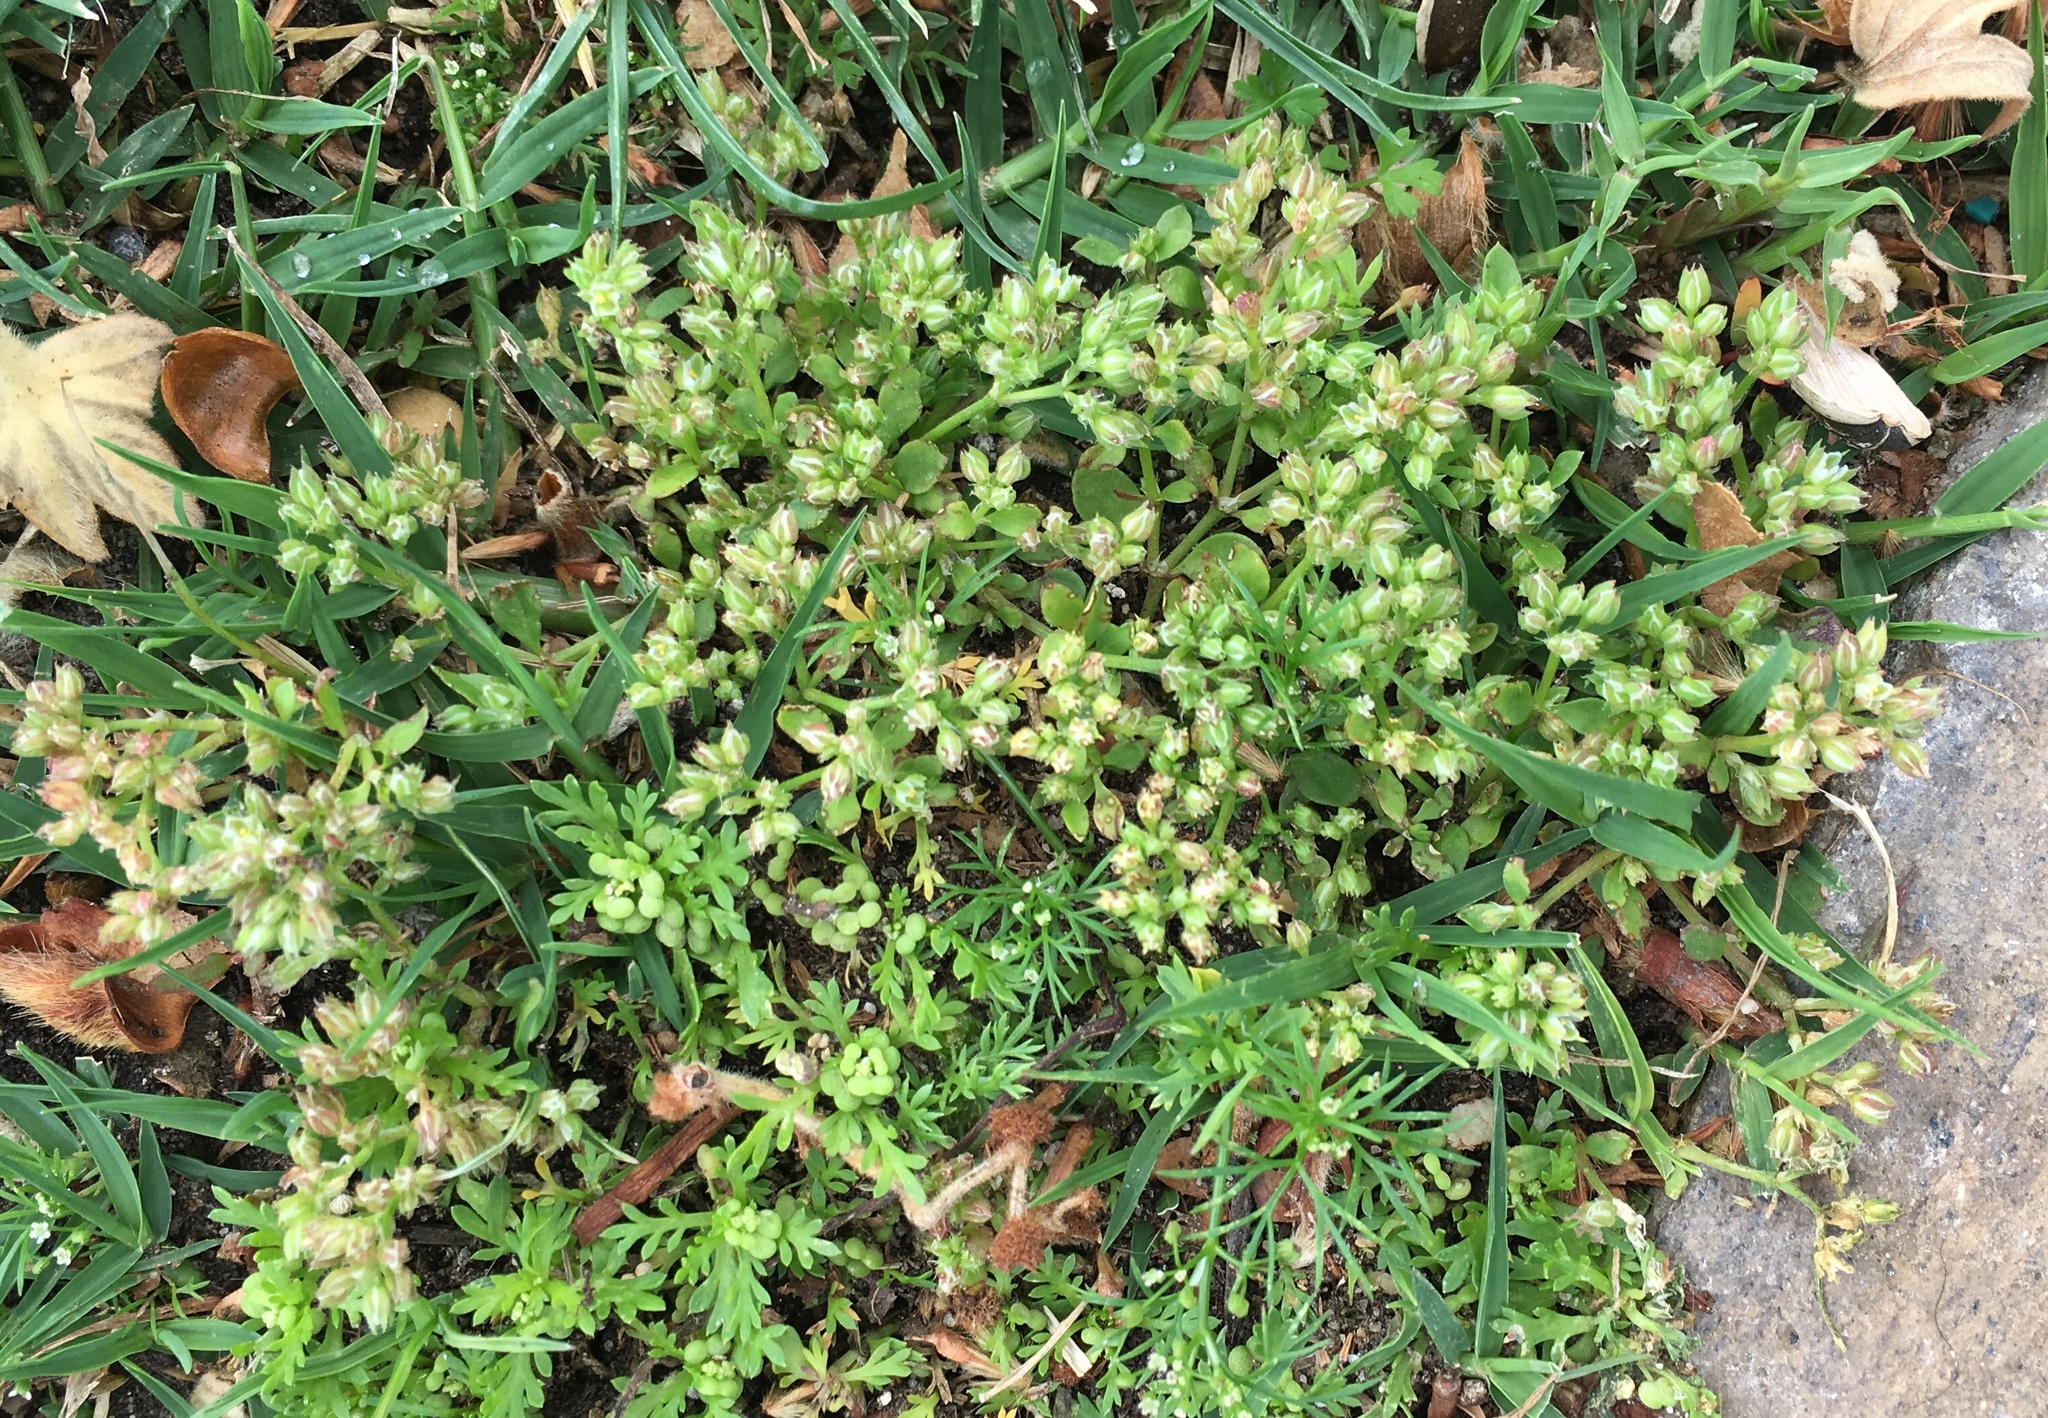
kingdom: Plantae
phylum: Tracheophyta
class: Magnoliopsida
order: Caryophyllales
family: Caryophyllaceae
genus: Polycarpon
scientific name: Polycarpon tetraphyllum
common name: Four-leaved all-seed
